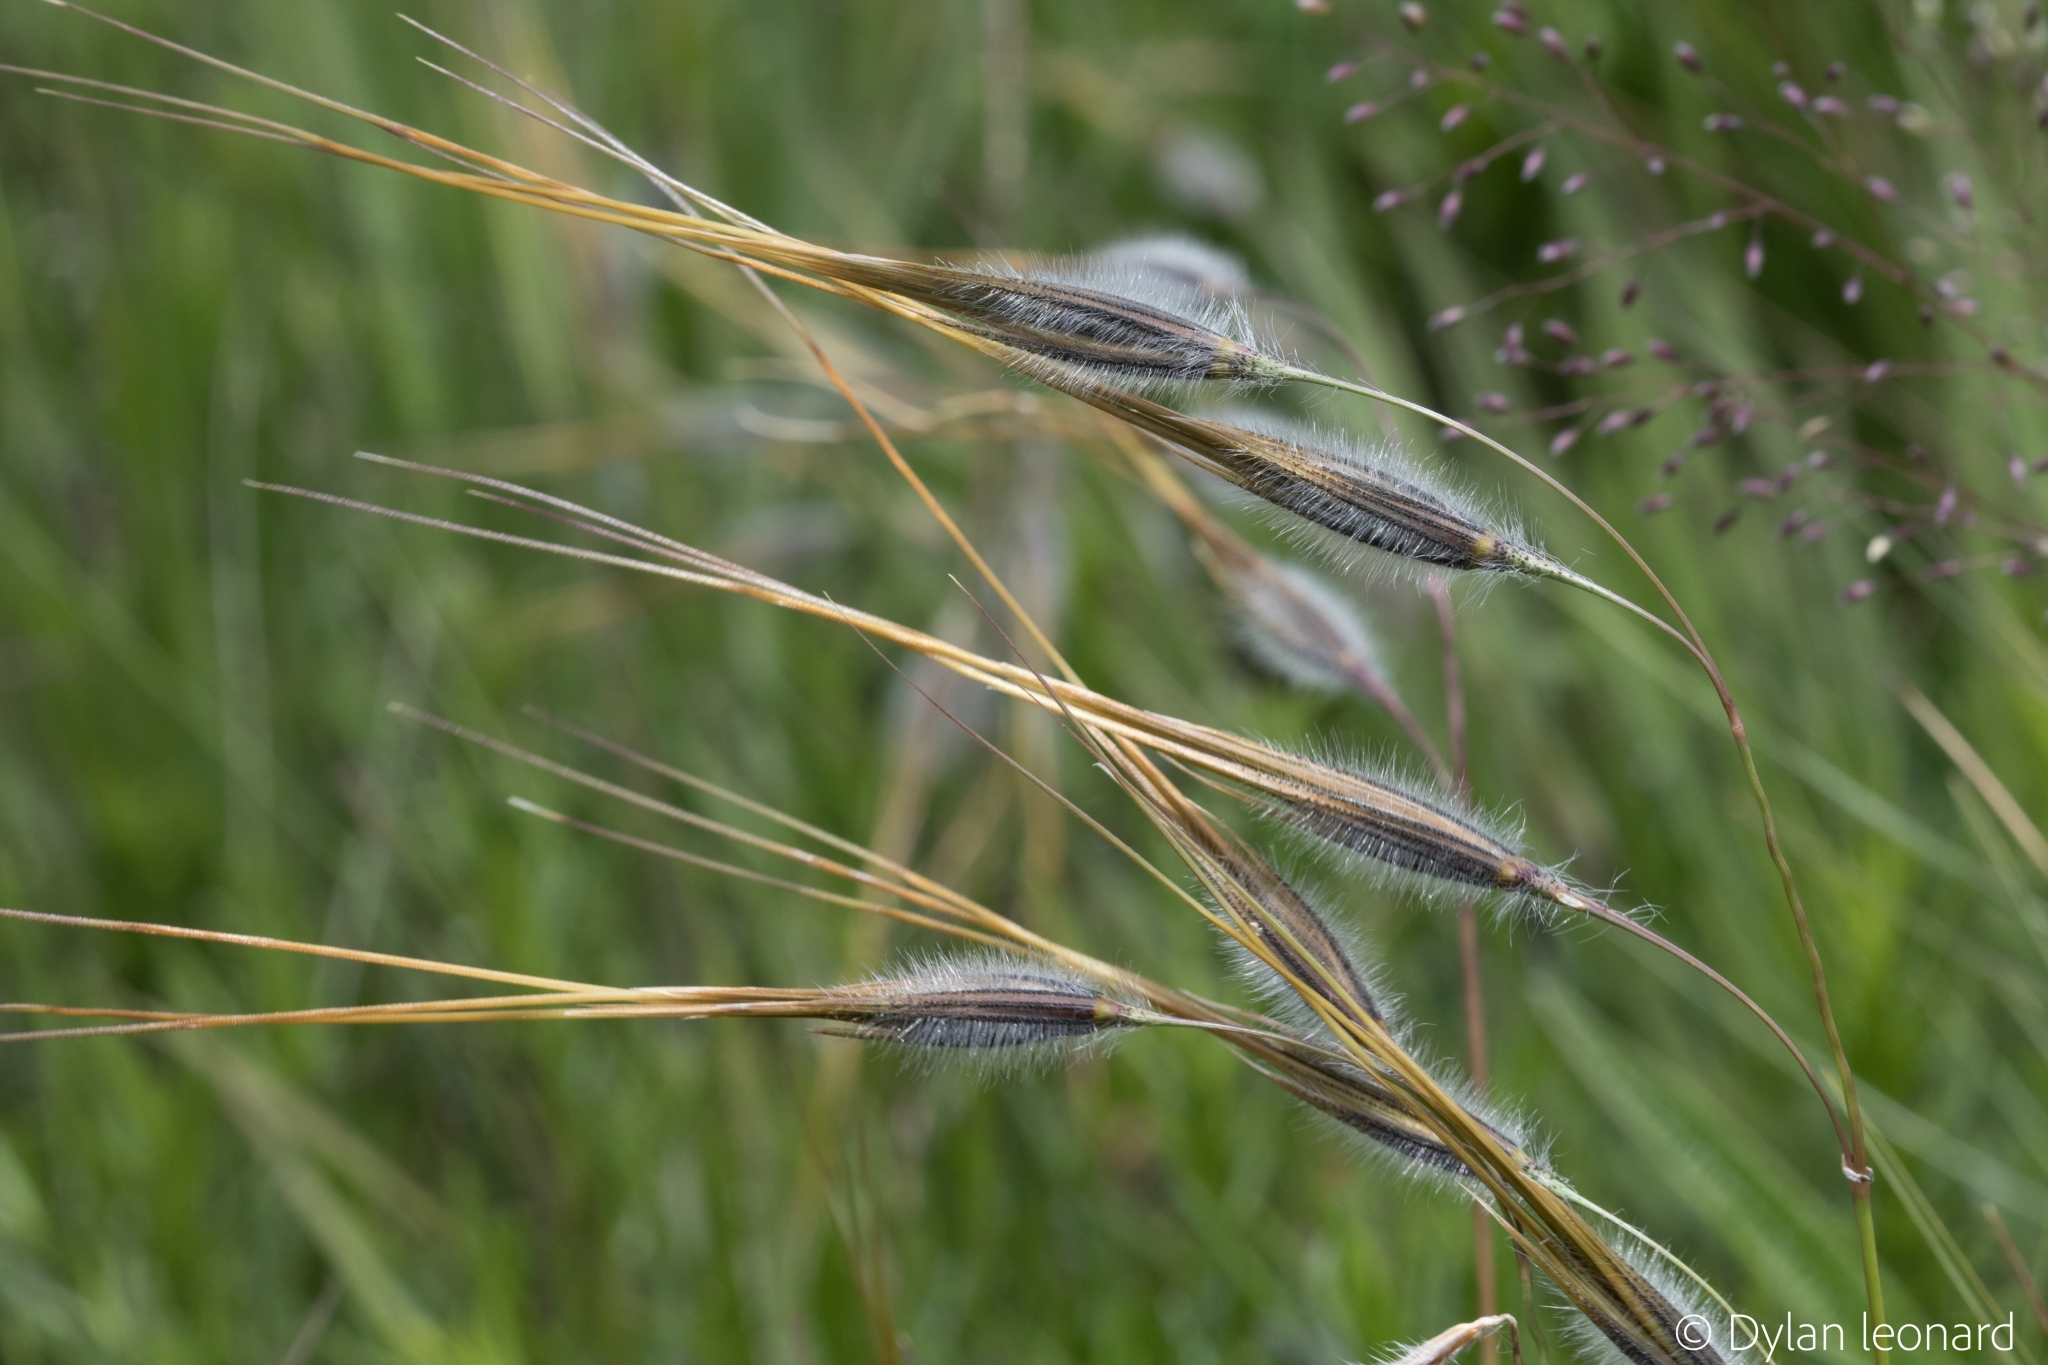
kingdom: Plantae
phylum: Tracheophyta
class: Liliopsida
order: Poales
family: Poaceae
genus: Tristachya
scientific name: Tristachya leucothrix
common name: Trident grass
